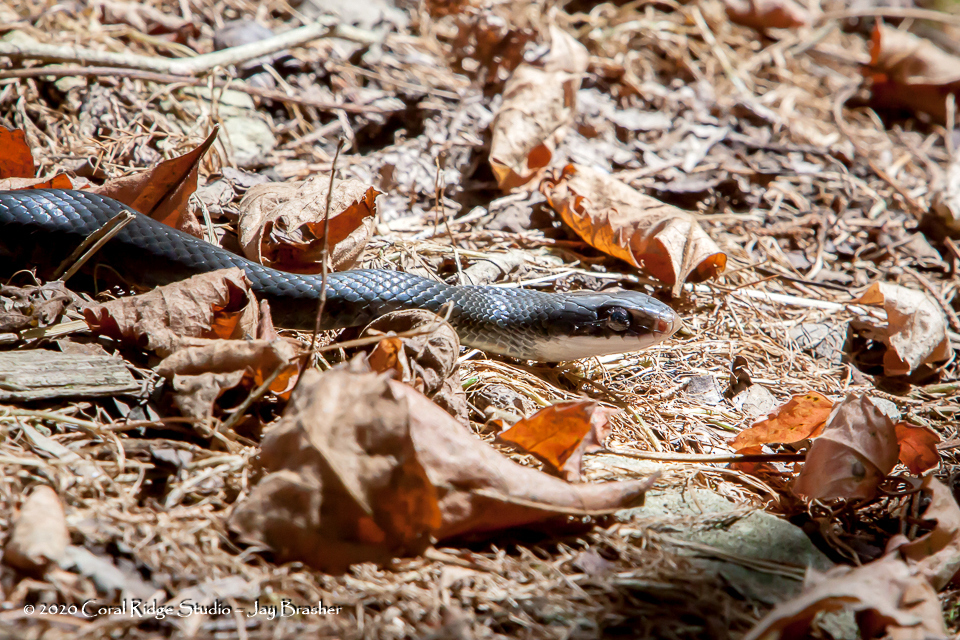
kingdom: Animalia
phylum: Chordata
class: Squamata
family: Colubridae
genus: Coluber
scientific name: Coluber constrictor
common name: Eastern racer
